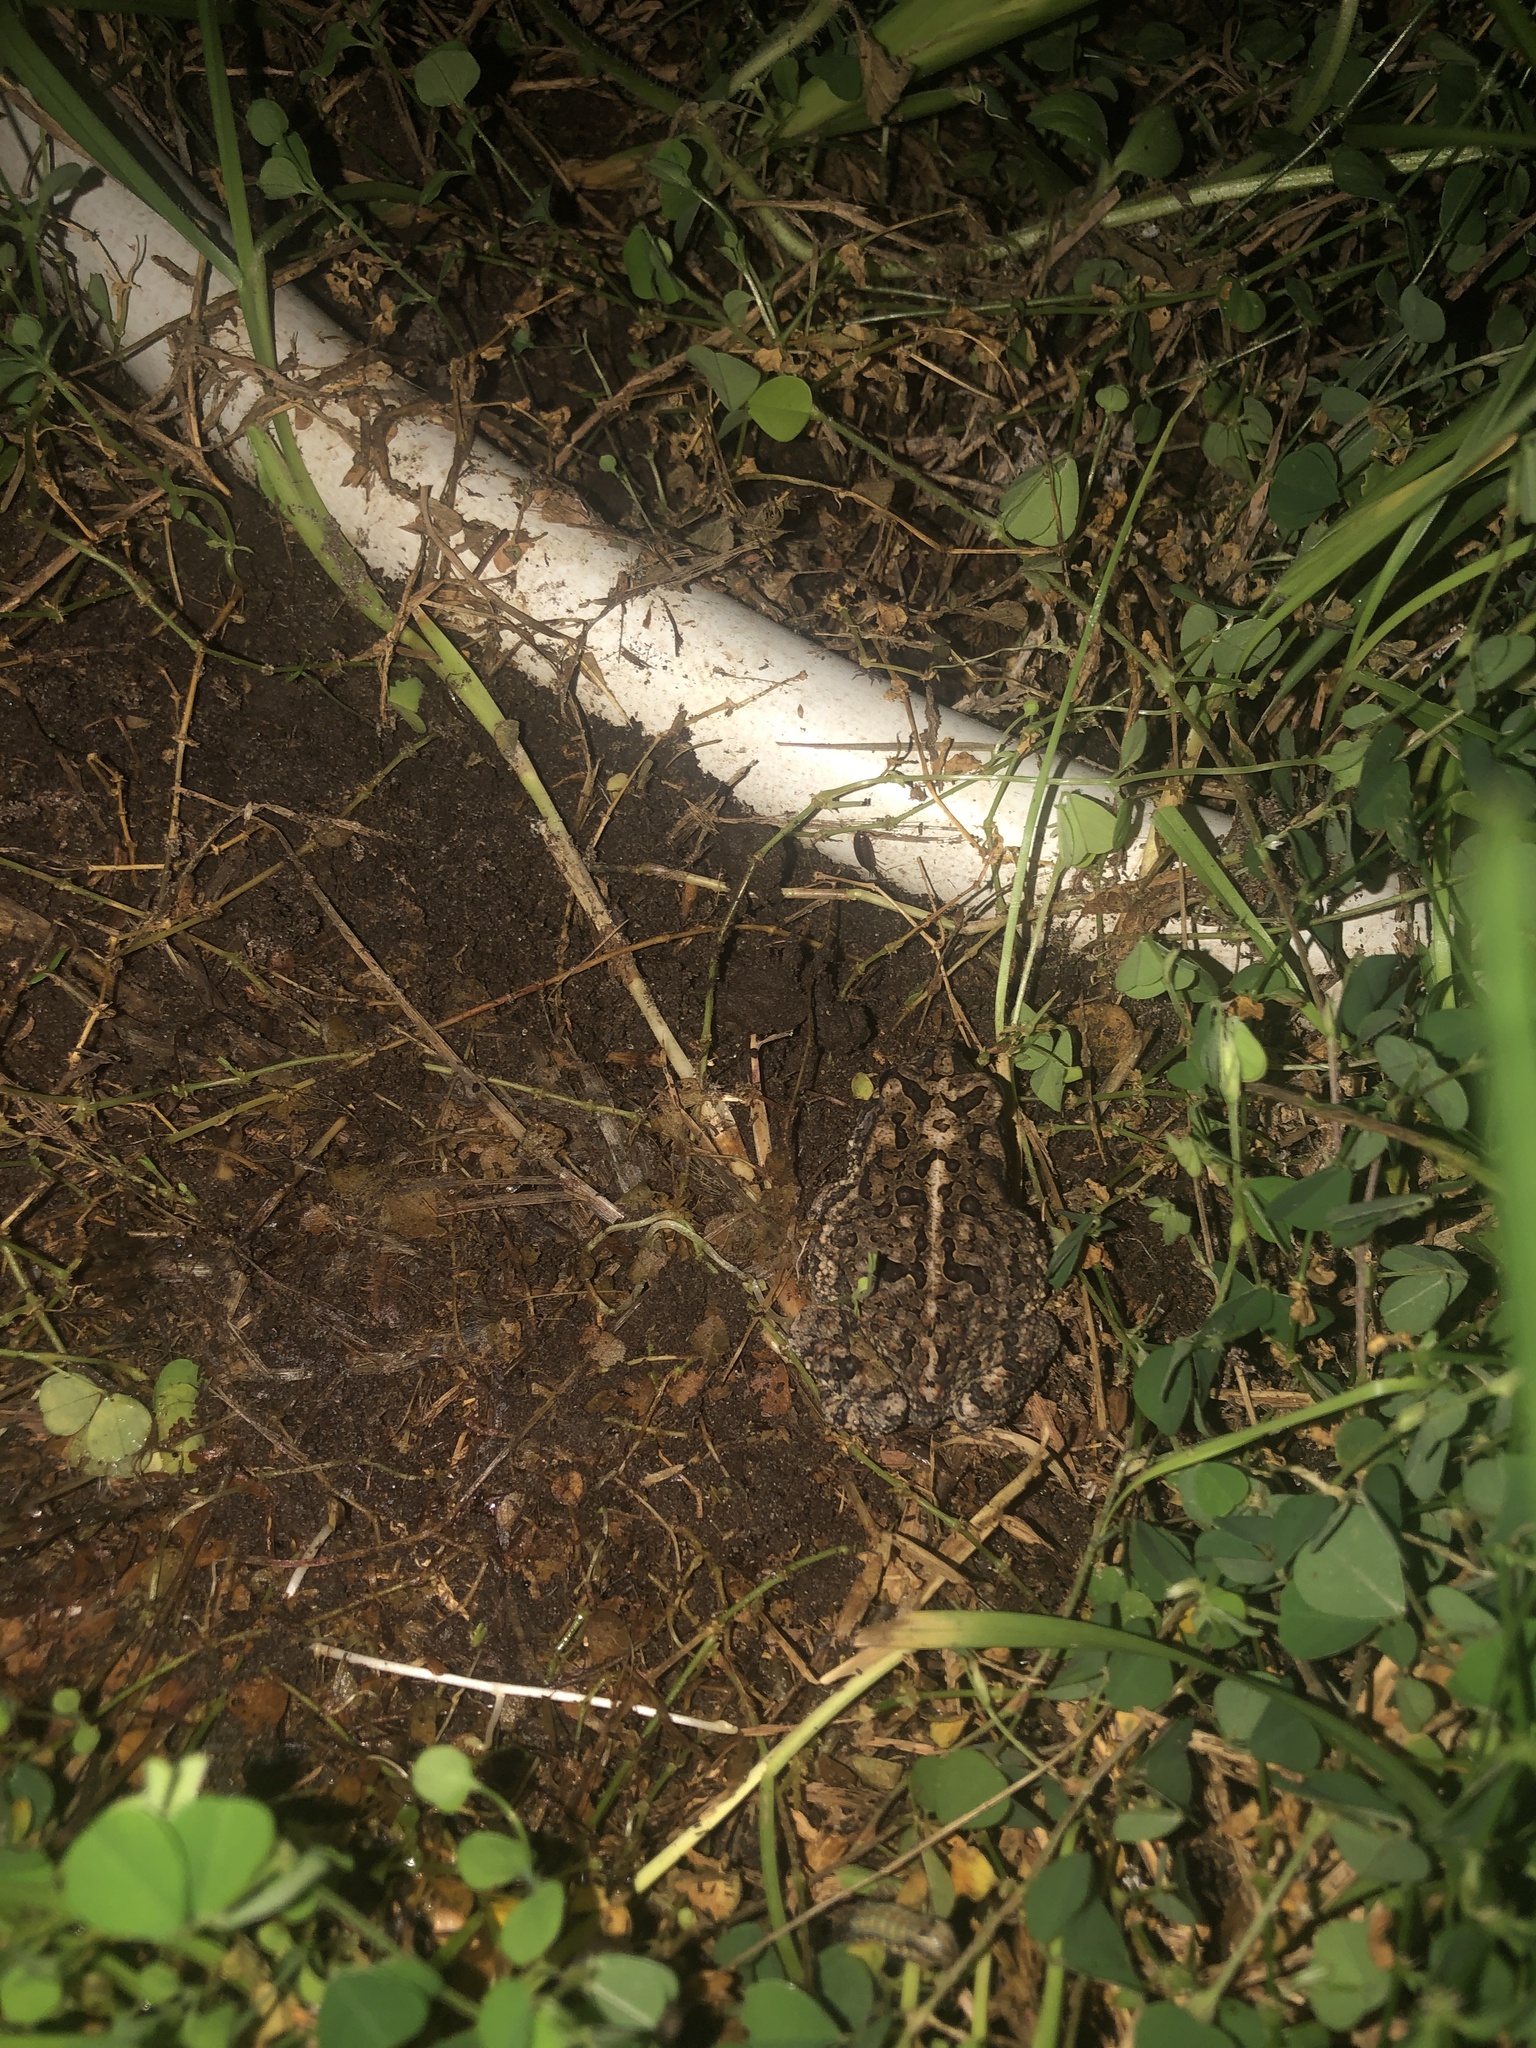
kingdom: Animalia
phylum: Chordata
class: Amphibia
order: Anura
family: Bufonidae
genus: Anaxyrus
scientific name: Anaxyrus terrestris
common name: Southern toad
